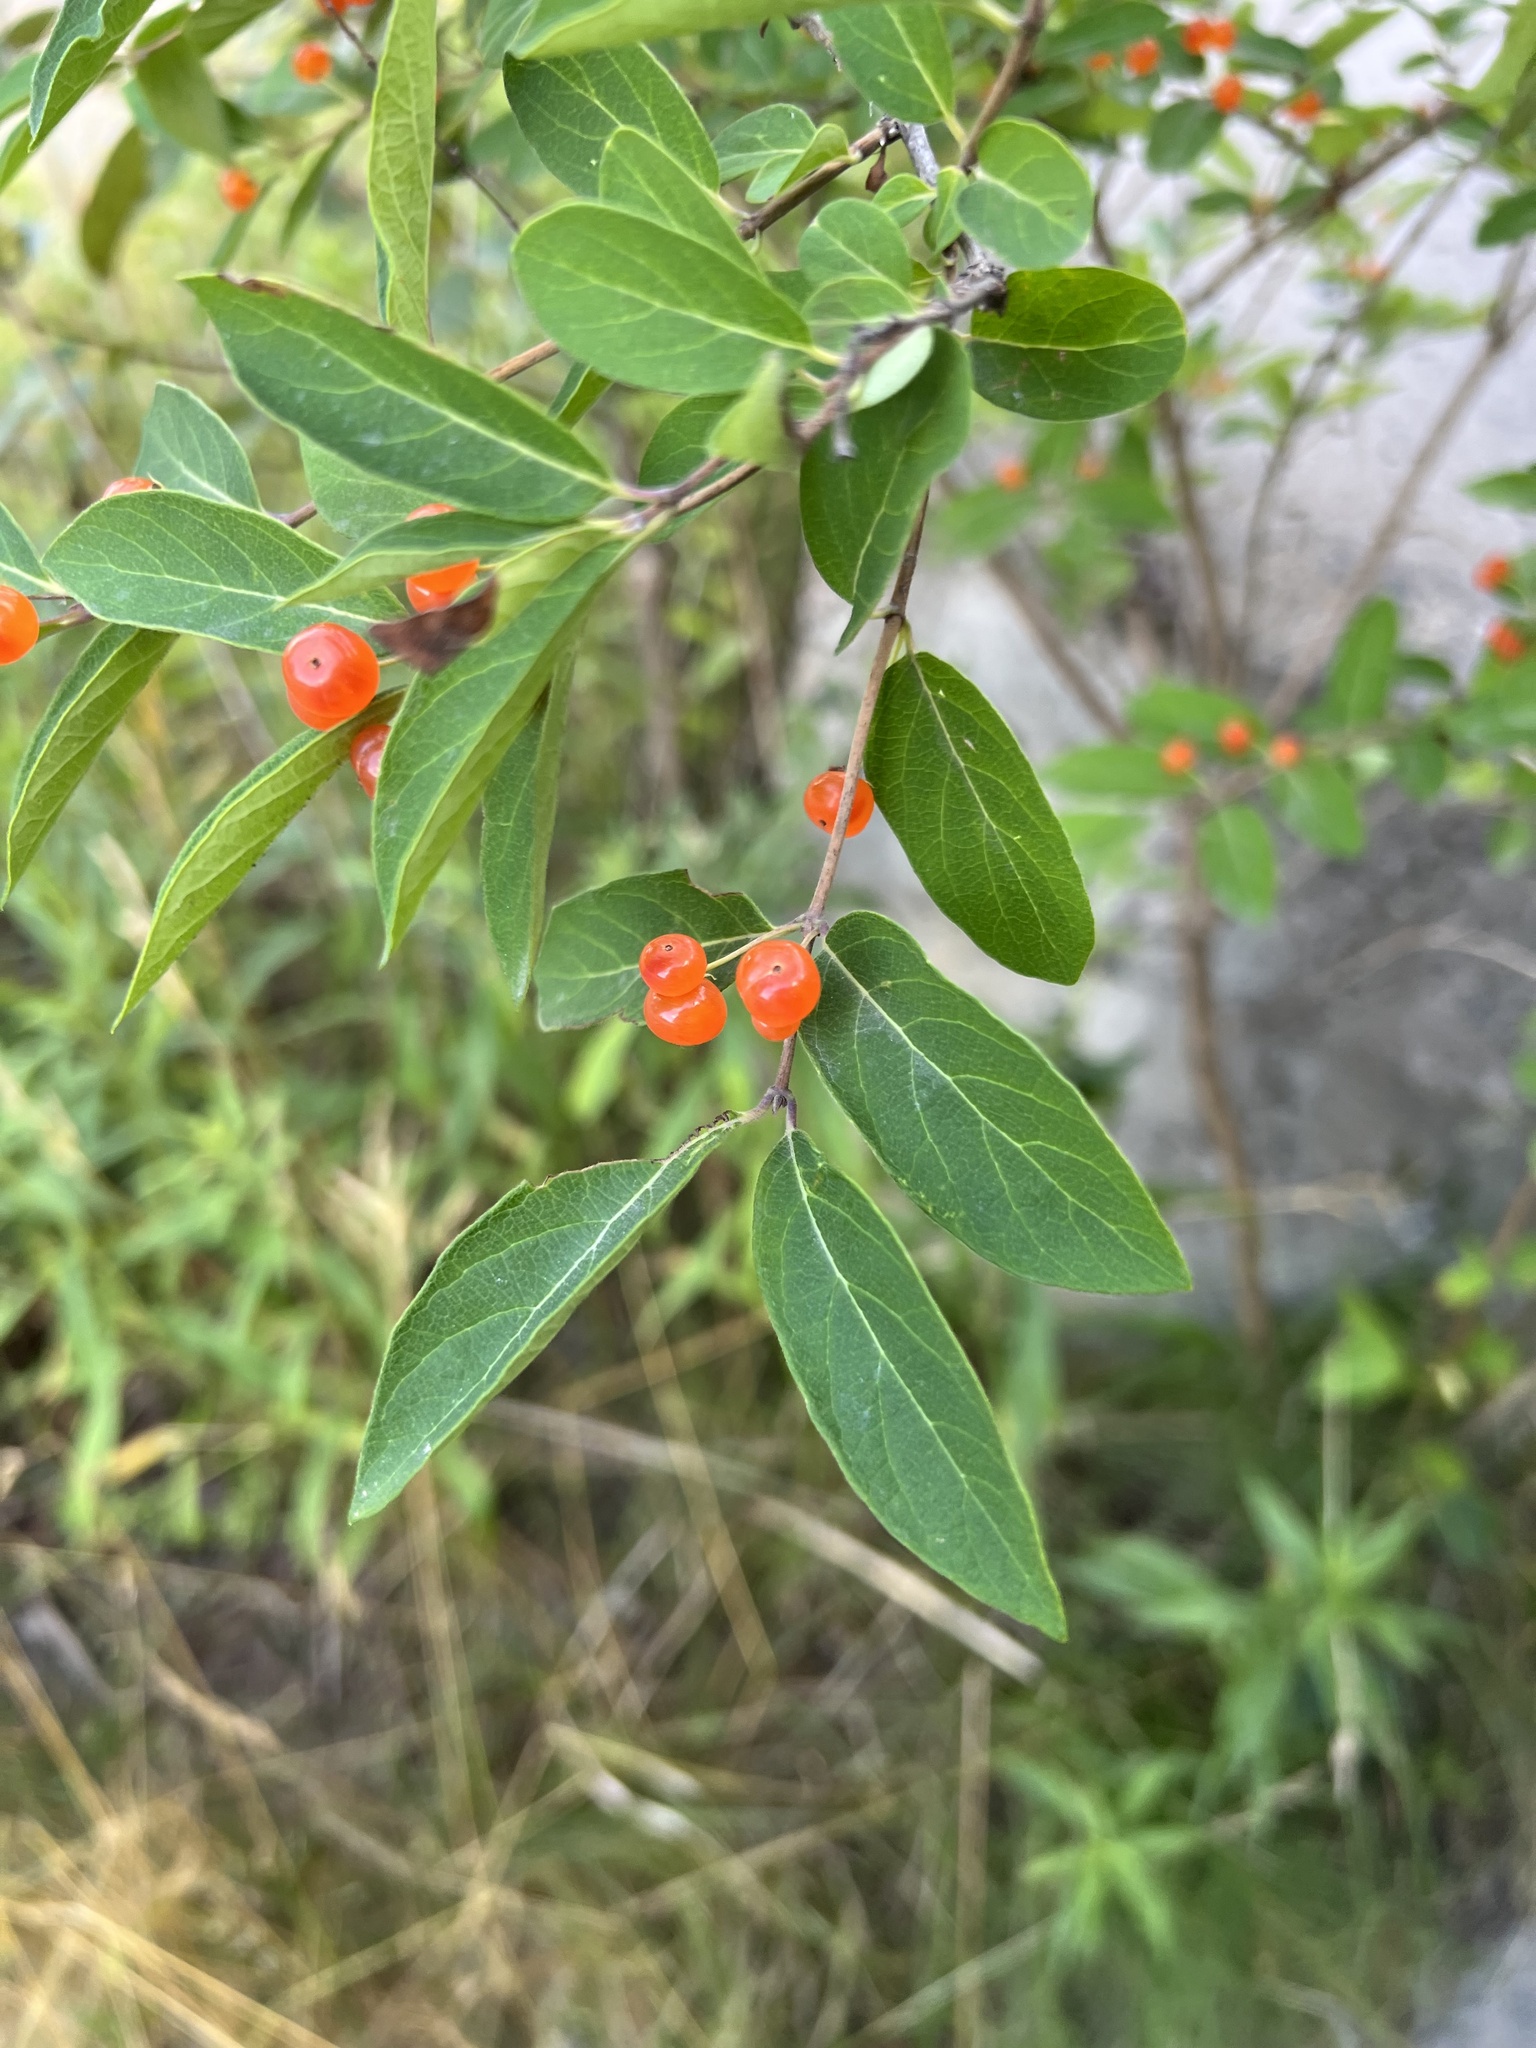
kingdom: Plantae
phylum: Tracheophyta
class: Magnoliopsida
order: Dipsacales
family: Caprifoliaceae
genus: Lonicera
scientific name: Lonicera tatarica
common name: Tatarian honeysuckle
